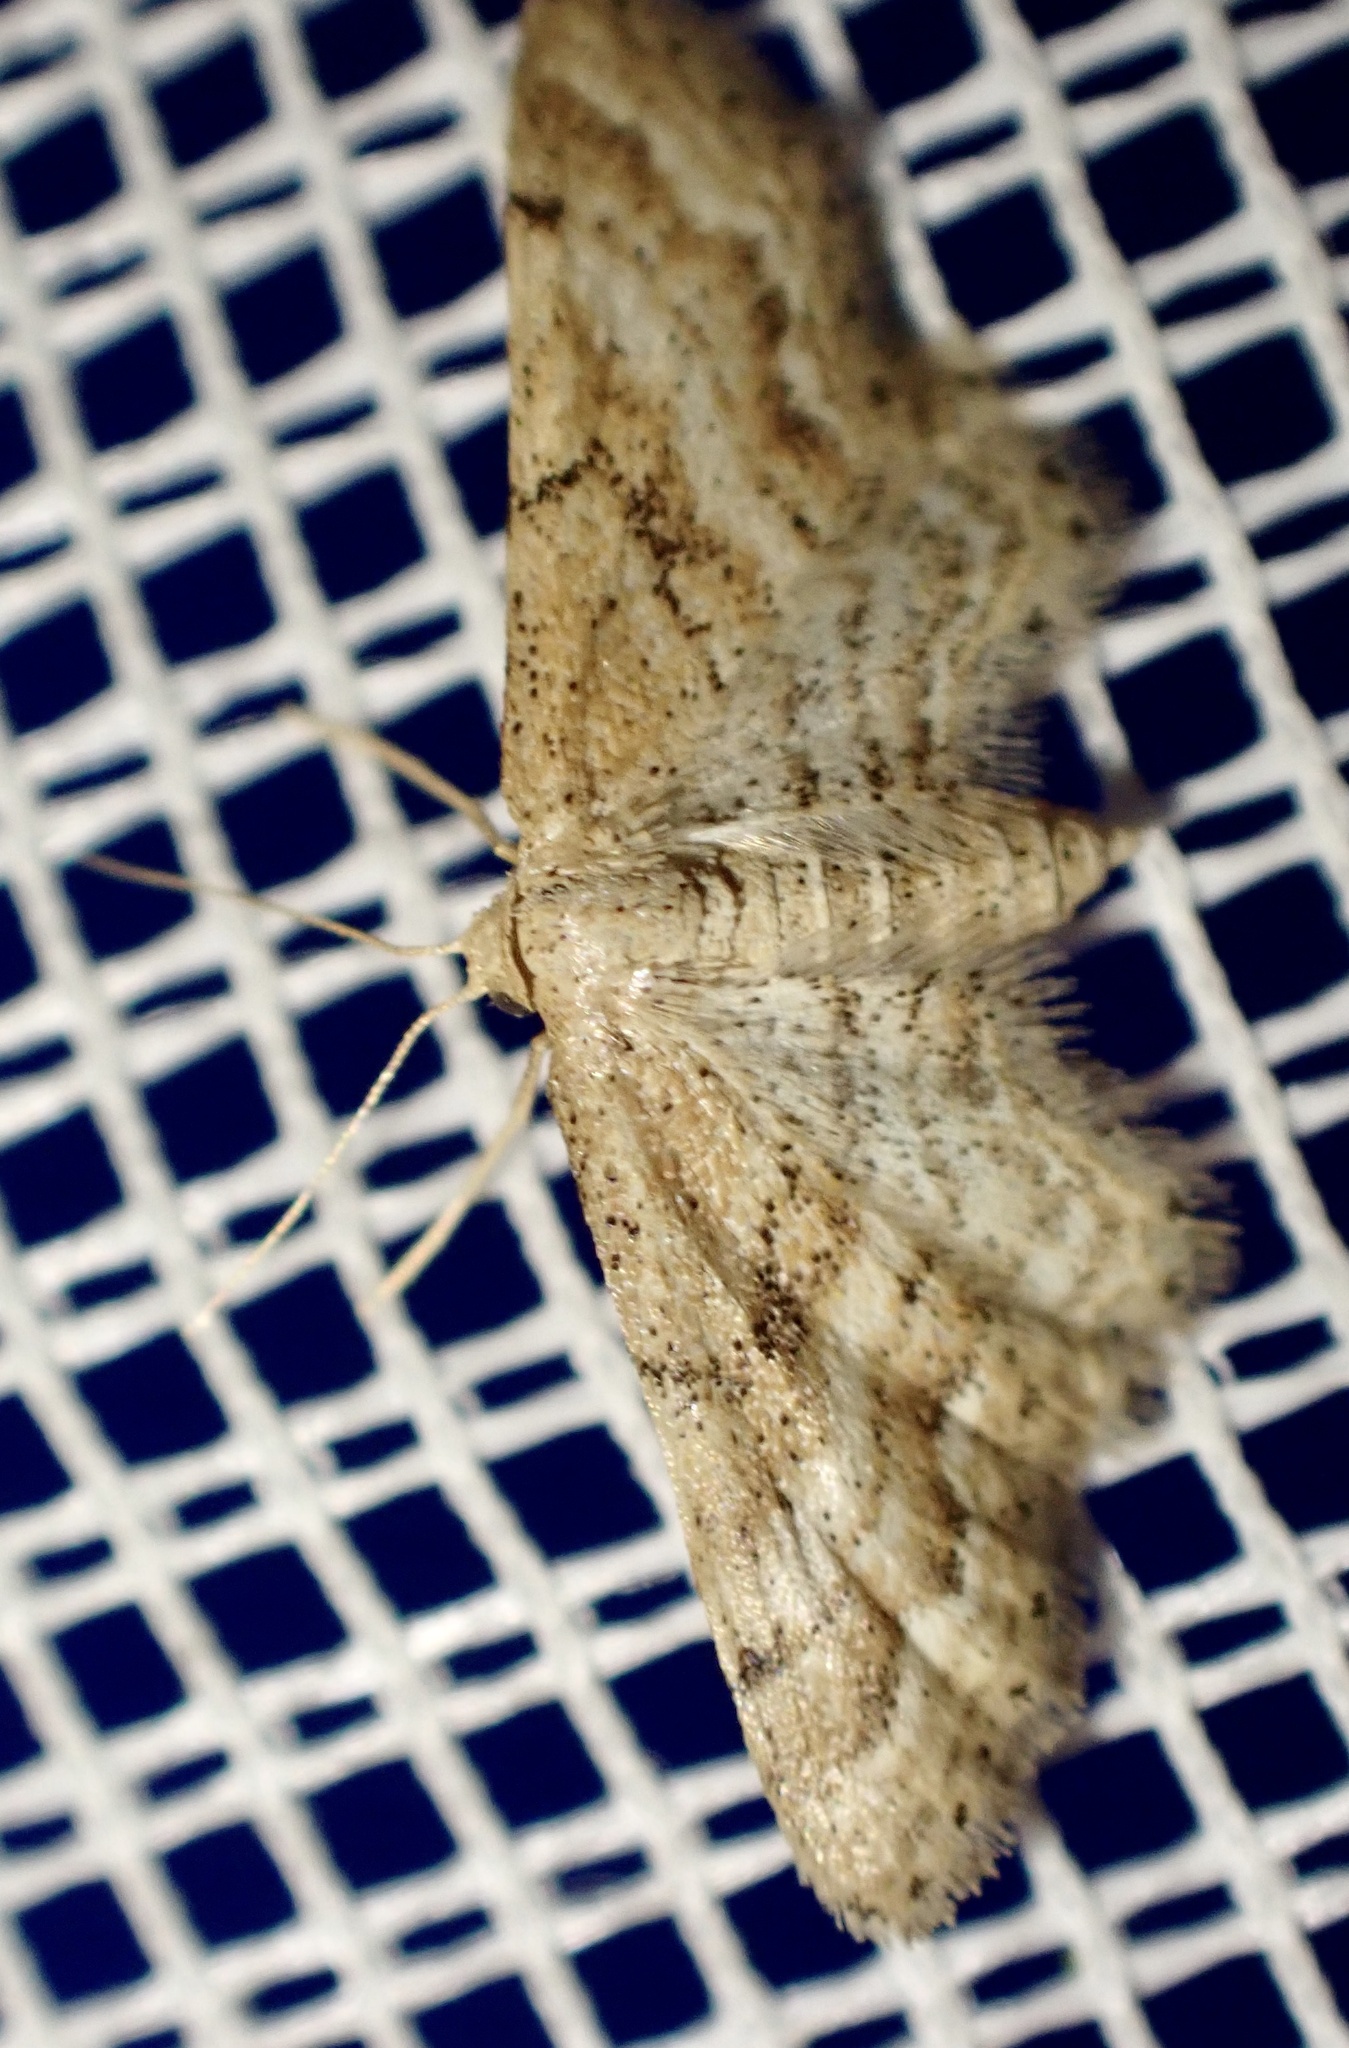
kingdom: Animalia
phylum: Arthropoda
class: Insecta
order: Lepidoptera
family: Geometridae
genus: Idaea
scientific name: Idaea fractilineata
